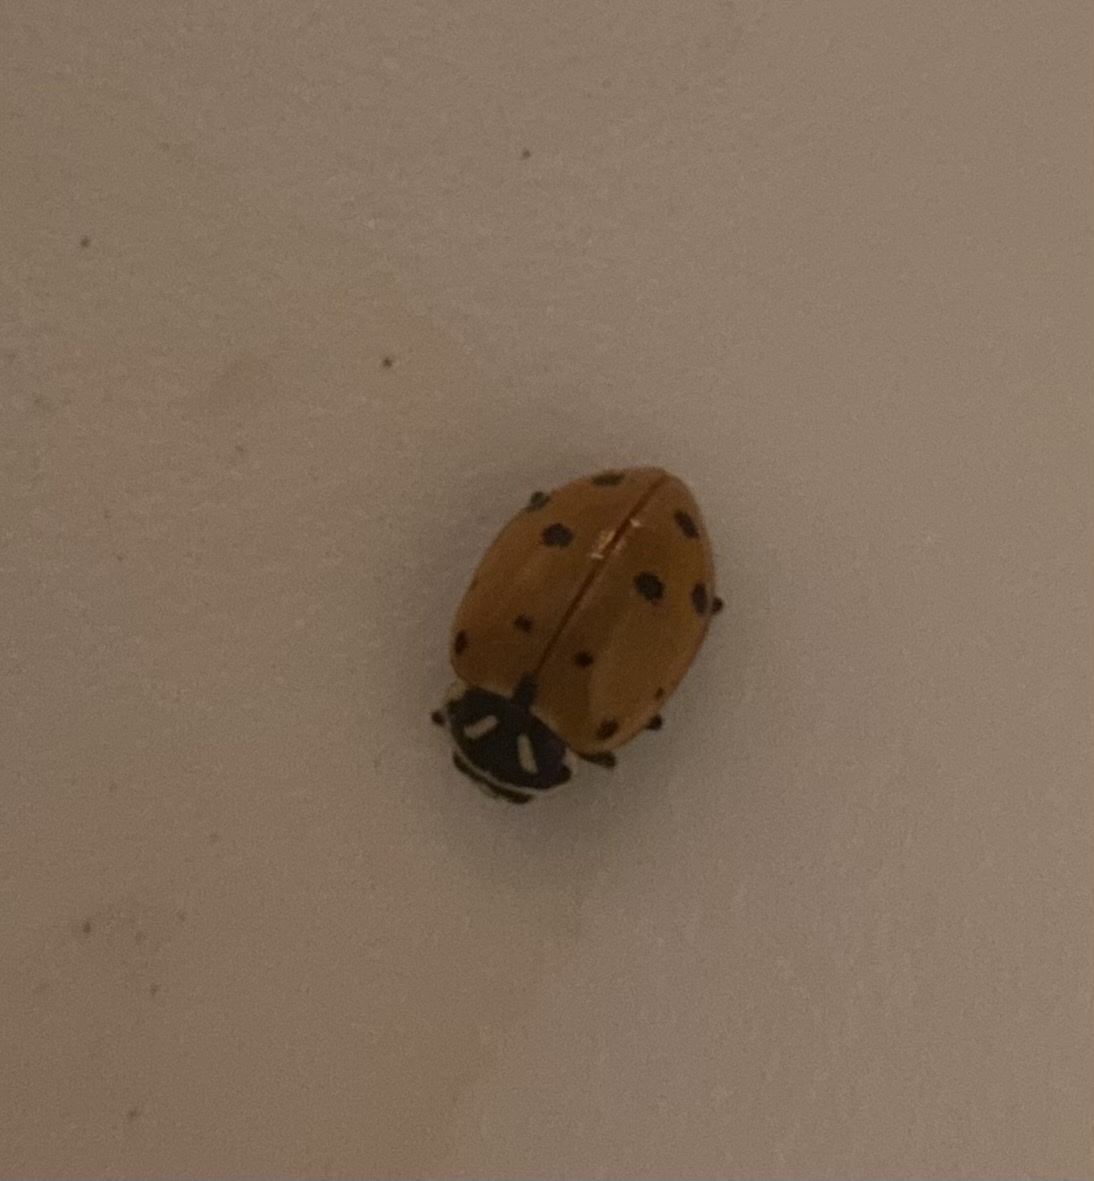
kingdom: Animalia
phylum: Arthropoda
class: Insecta
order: Coleoptera
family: Coccinellidae
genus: Hippodamia
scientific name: Hippodamia convergens
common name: Convergent lady beetle
